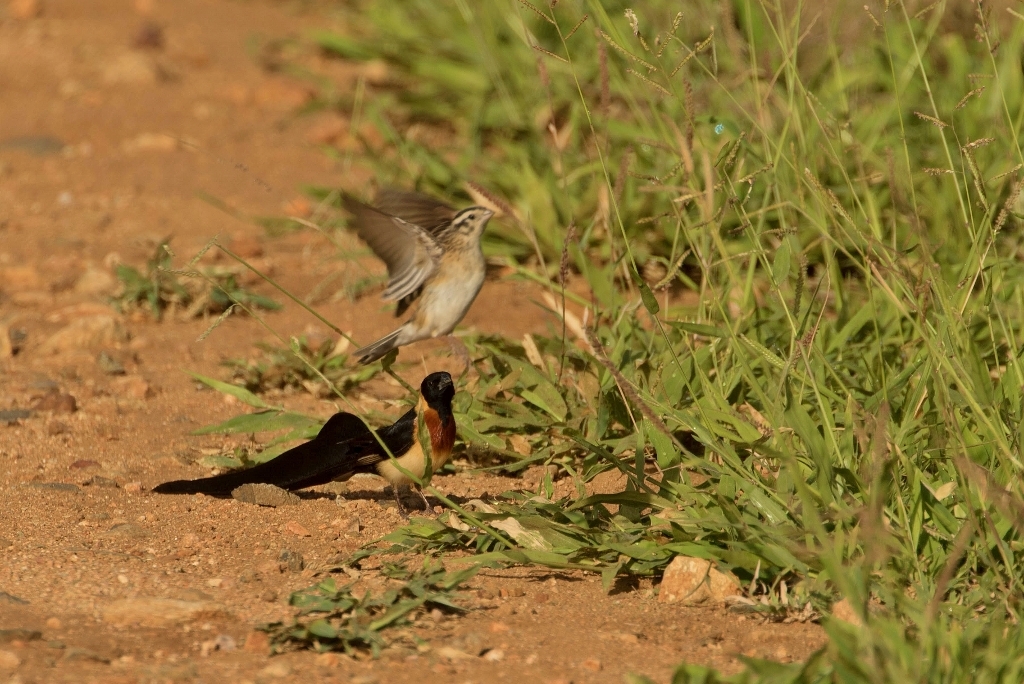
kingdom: Animalia
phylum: Chordata
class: Aves
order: Passeriformes
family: Viduidae
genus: Vidua
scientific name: Vidua paradisaea
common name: Long-tailed paradise whydah
